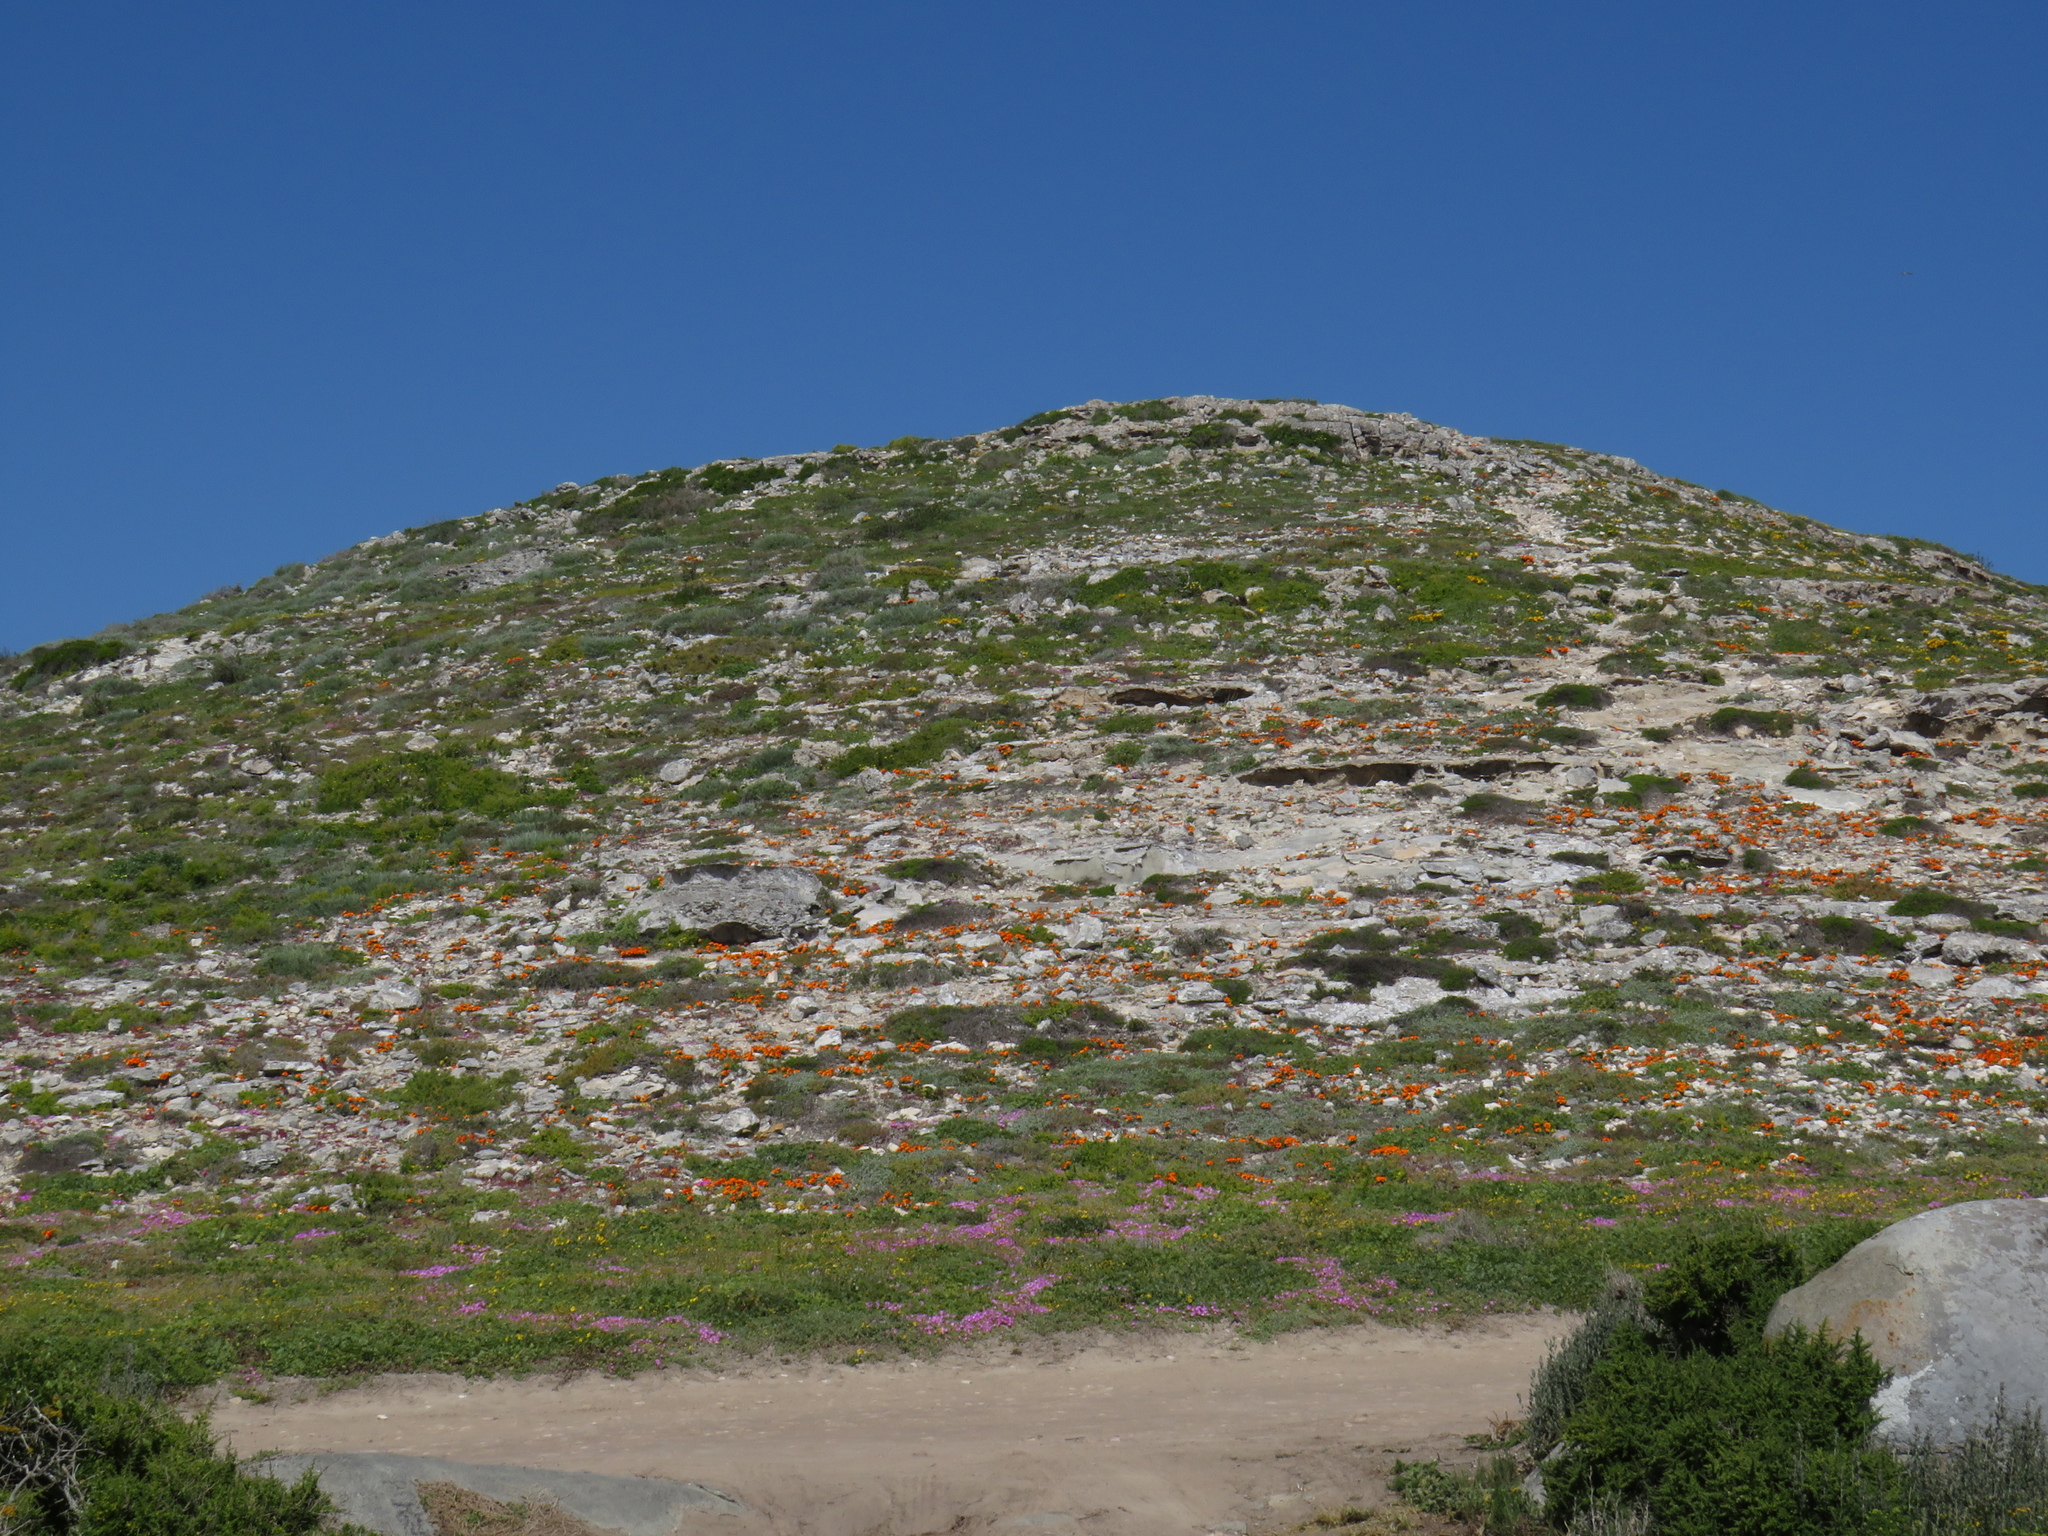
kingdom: Plantae
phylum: Tracheophyta
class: Magnoliopsida
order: Asterales
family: Asteraceae
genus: Gazania
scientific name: Gazania pectinata
